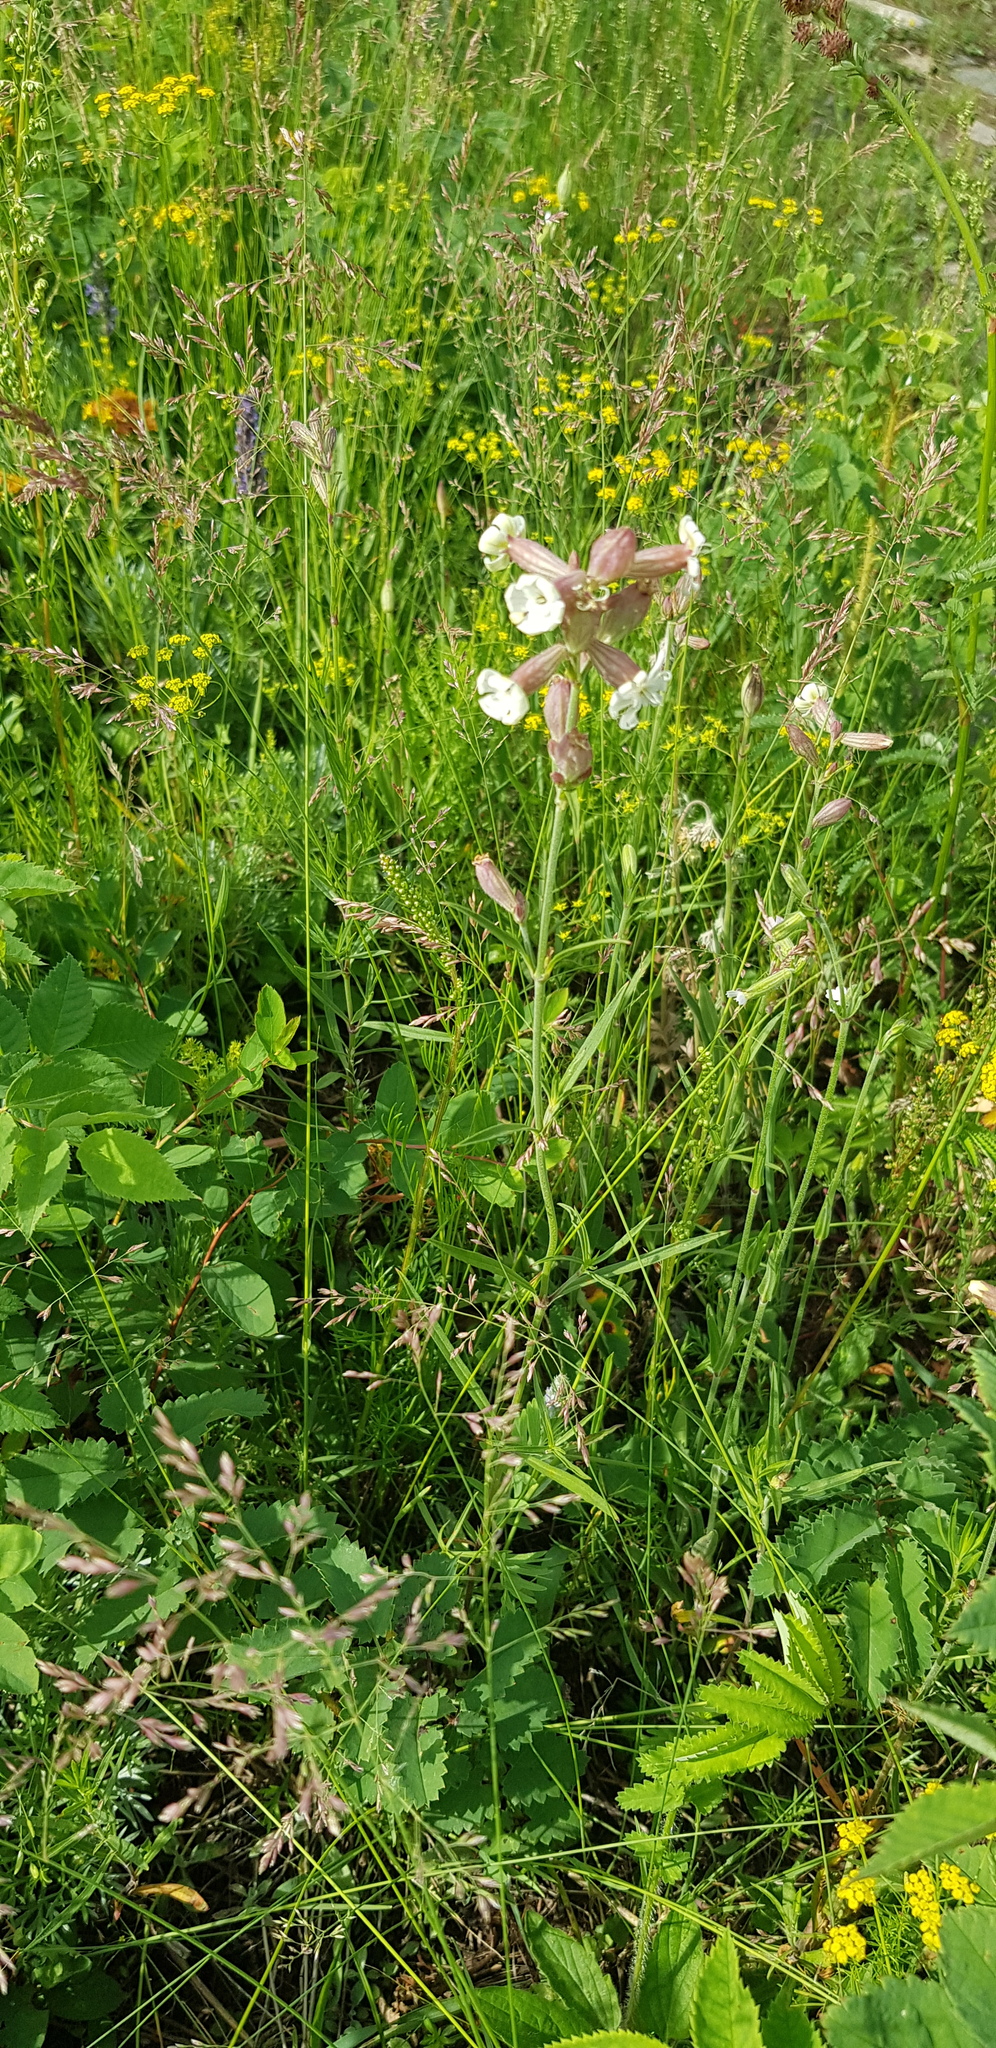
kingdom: Plantae
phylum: Tracheophyta
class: Magnoliopsida
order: Caryophyllales
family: Caryophyllaceae
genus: Silene
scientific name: Silene repens
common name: Pink campion
